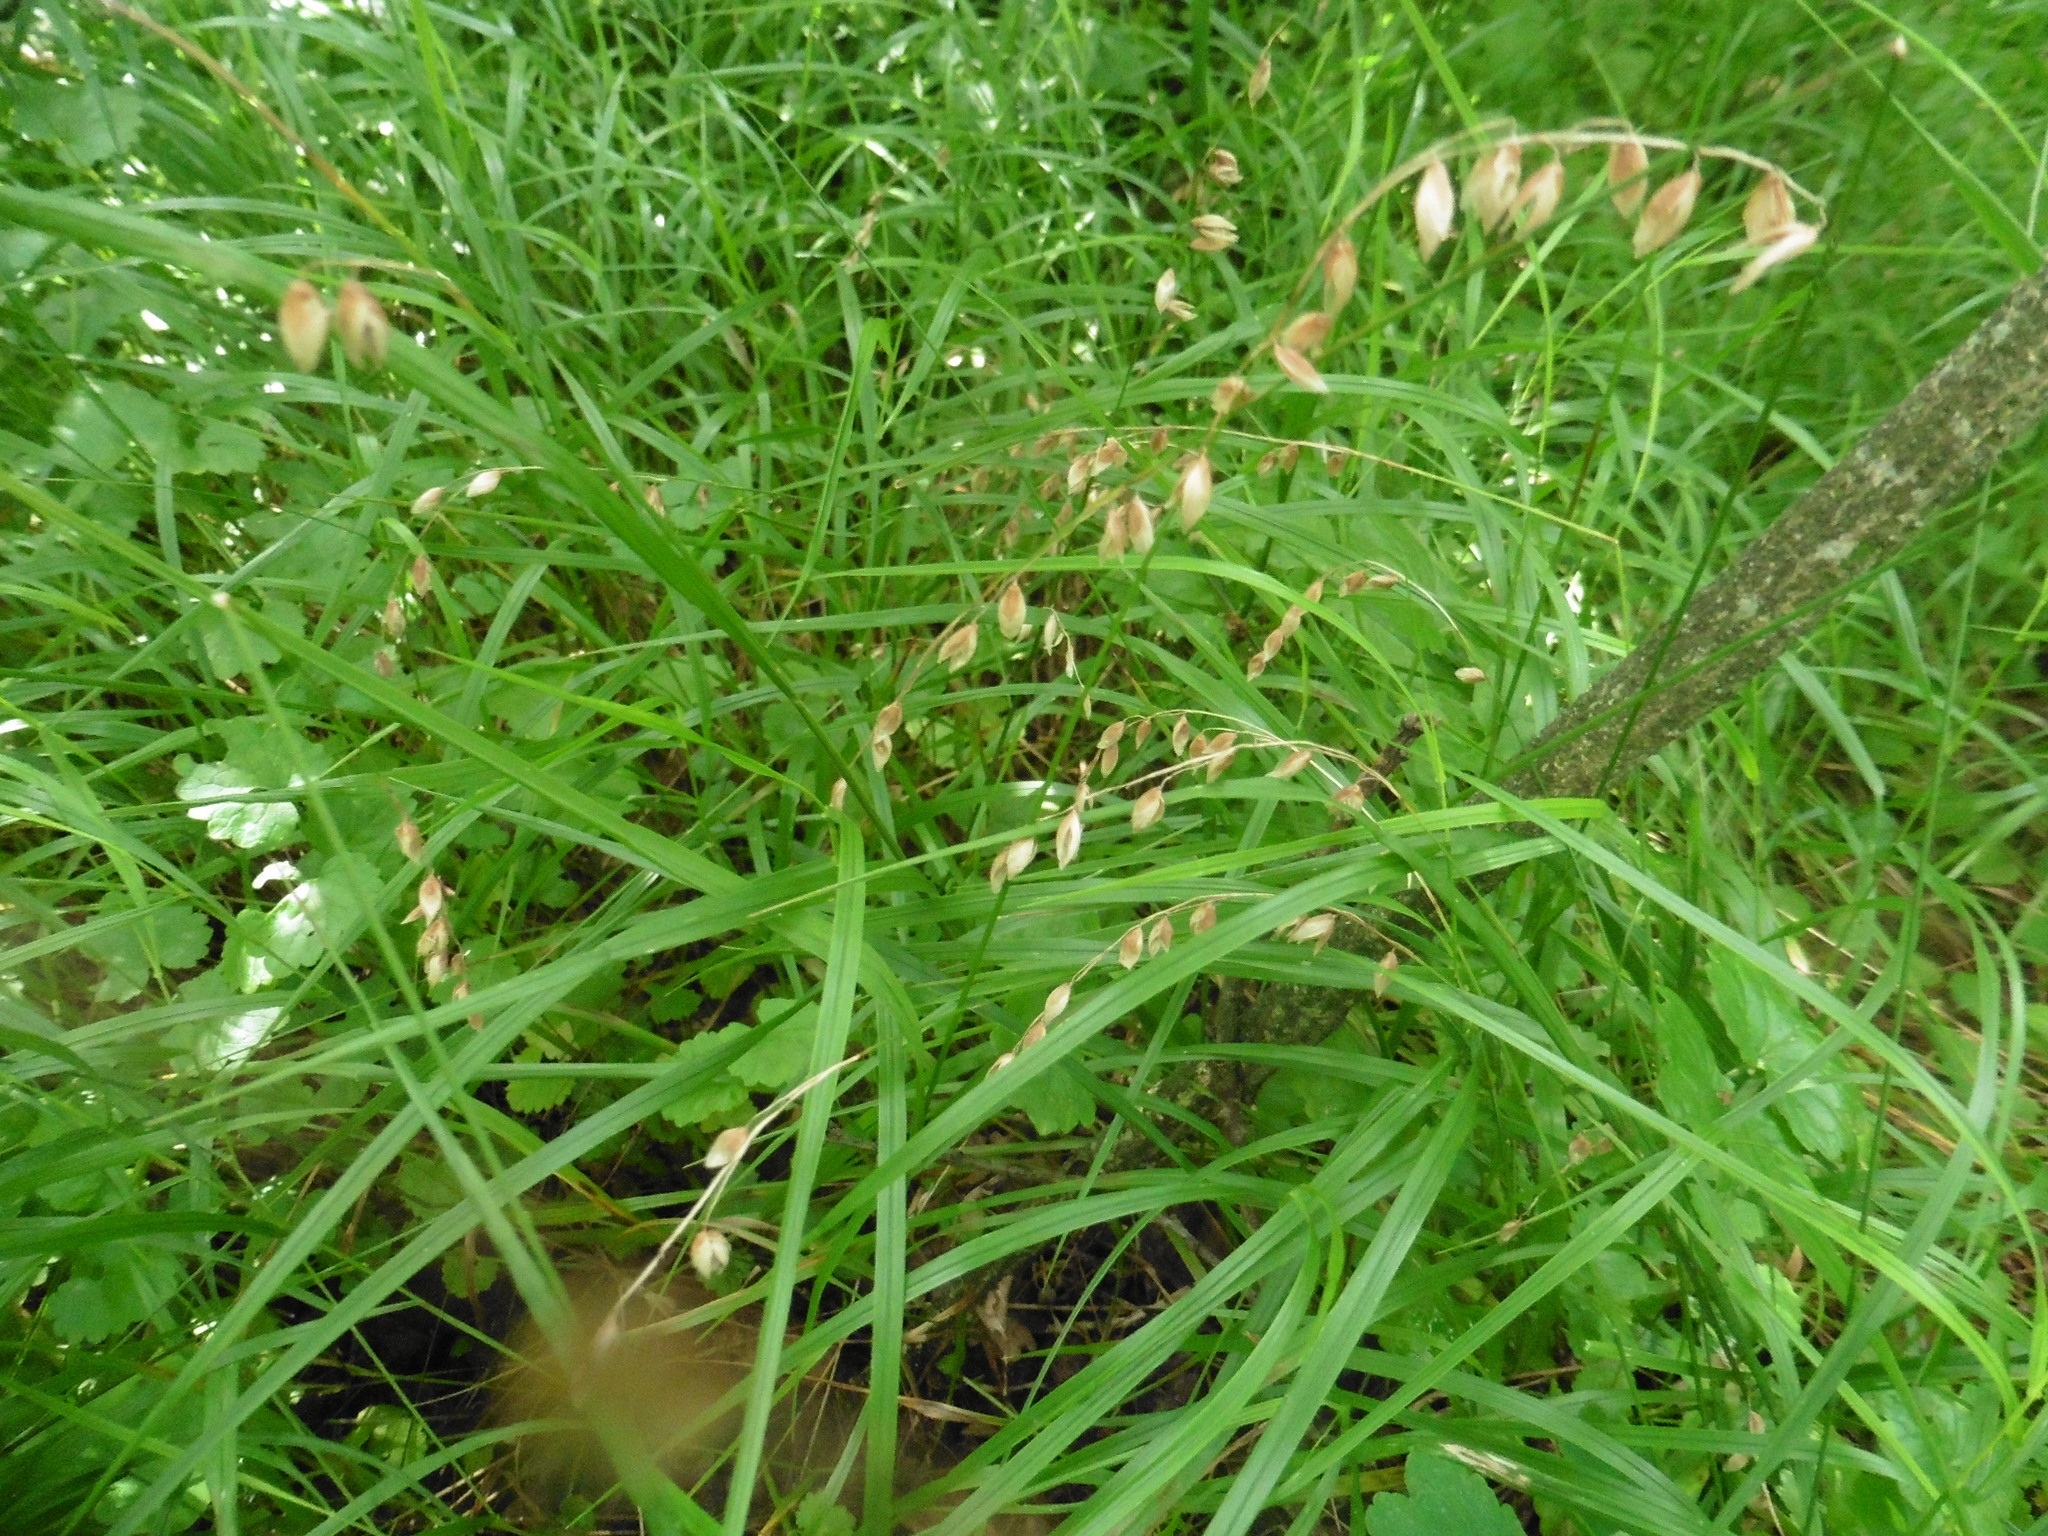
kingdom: Plantae
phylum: Tracheophyta
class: Liliopsida
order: Poales
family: Poaceae
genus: Melica
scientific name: Melica nutans
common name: Mountain melick
